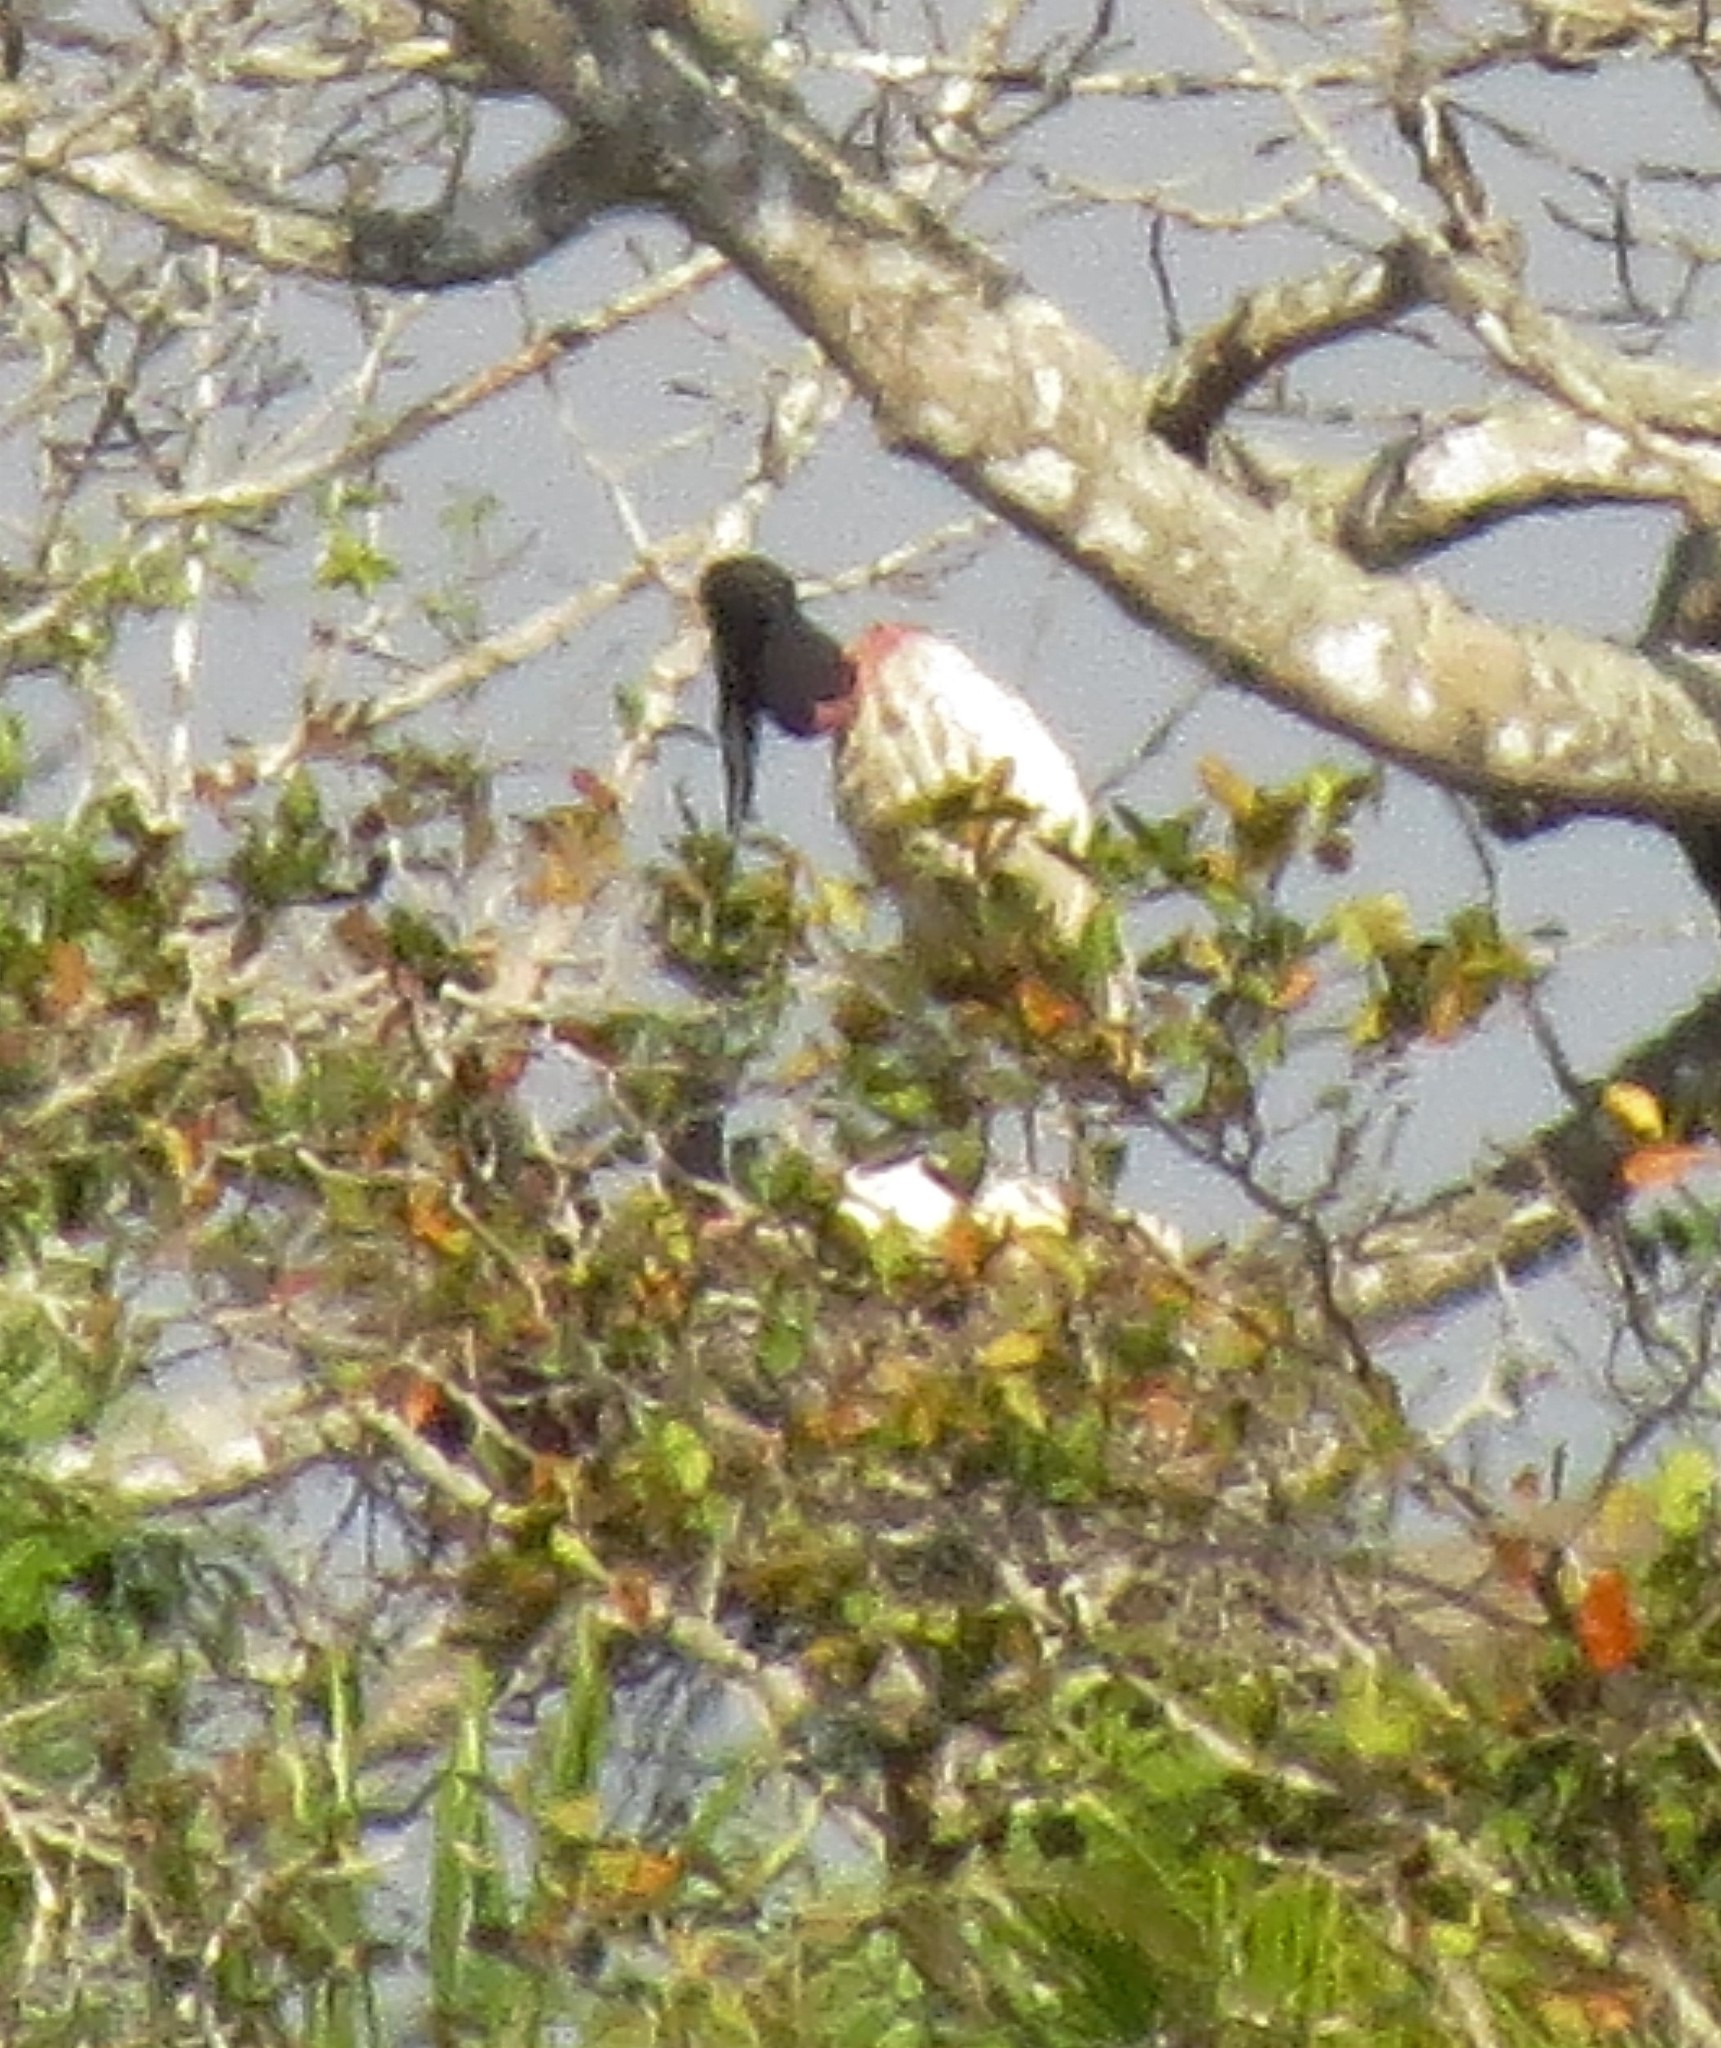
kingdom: Animalia
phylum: Chordata
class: Aves
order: Ciconiiformes
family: Ciconiidae
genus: Jabiru
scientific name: Jabiru mycteria
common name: Jabiru
